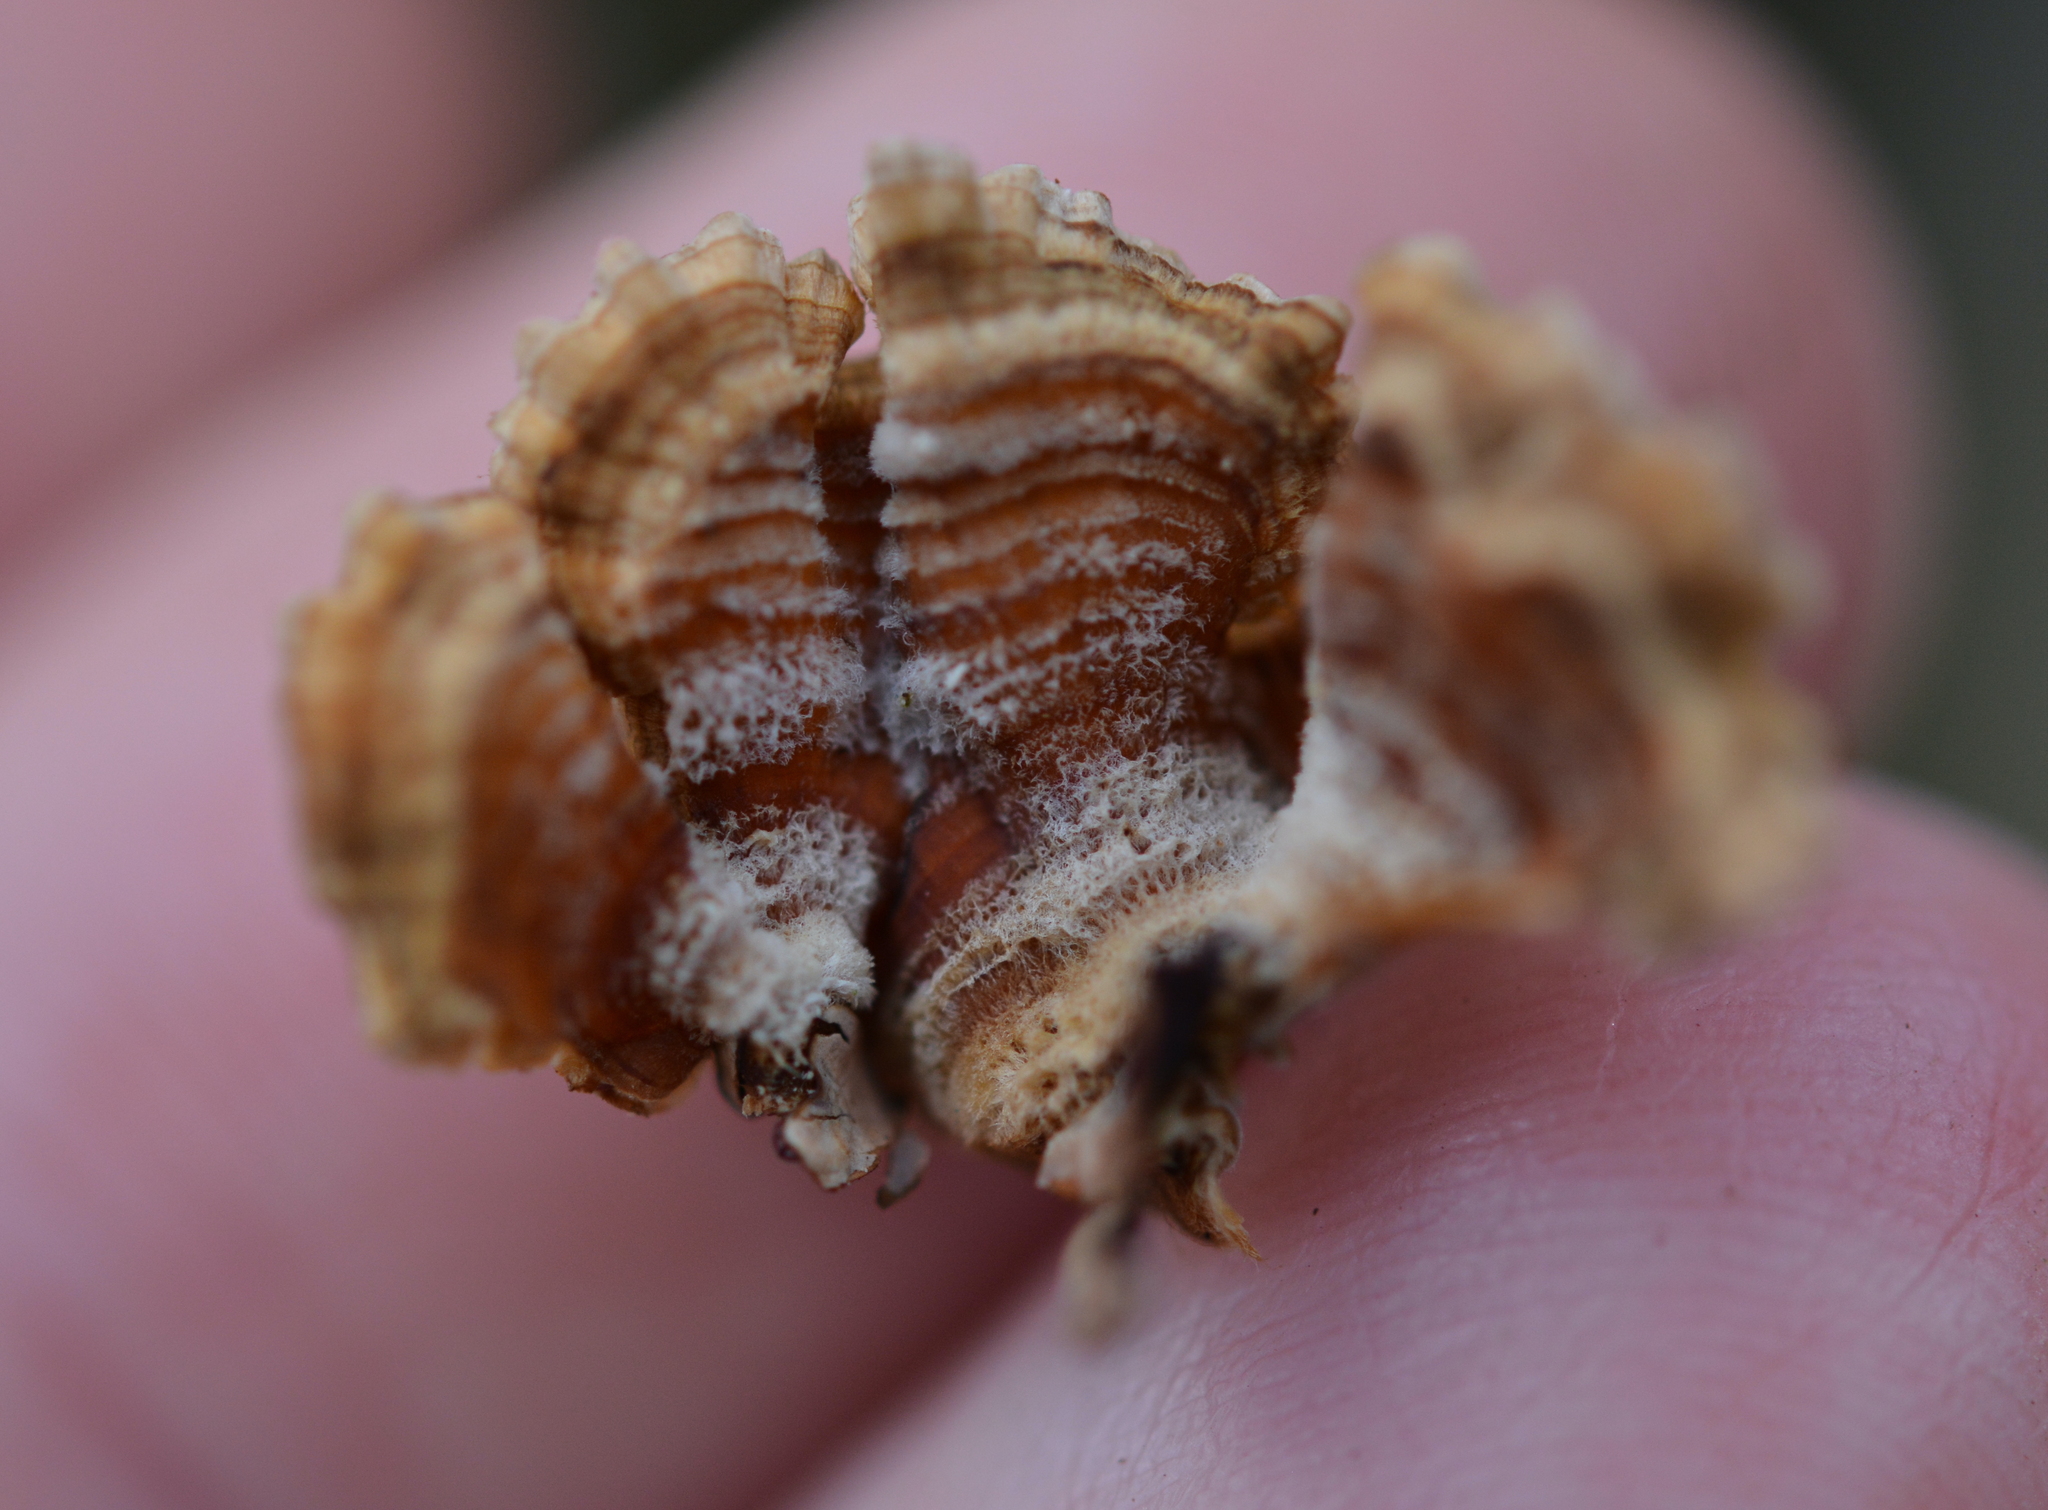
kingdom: Fungi
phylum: Basidiomycota
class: Agaricomycetes
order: Russulales
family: Stereaceae
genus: Stereum
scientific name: Stereum complicatum
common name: Crowded parchment
